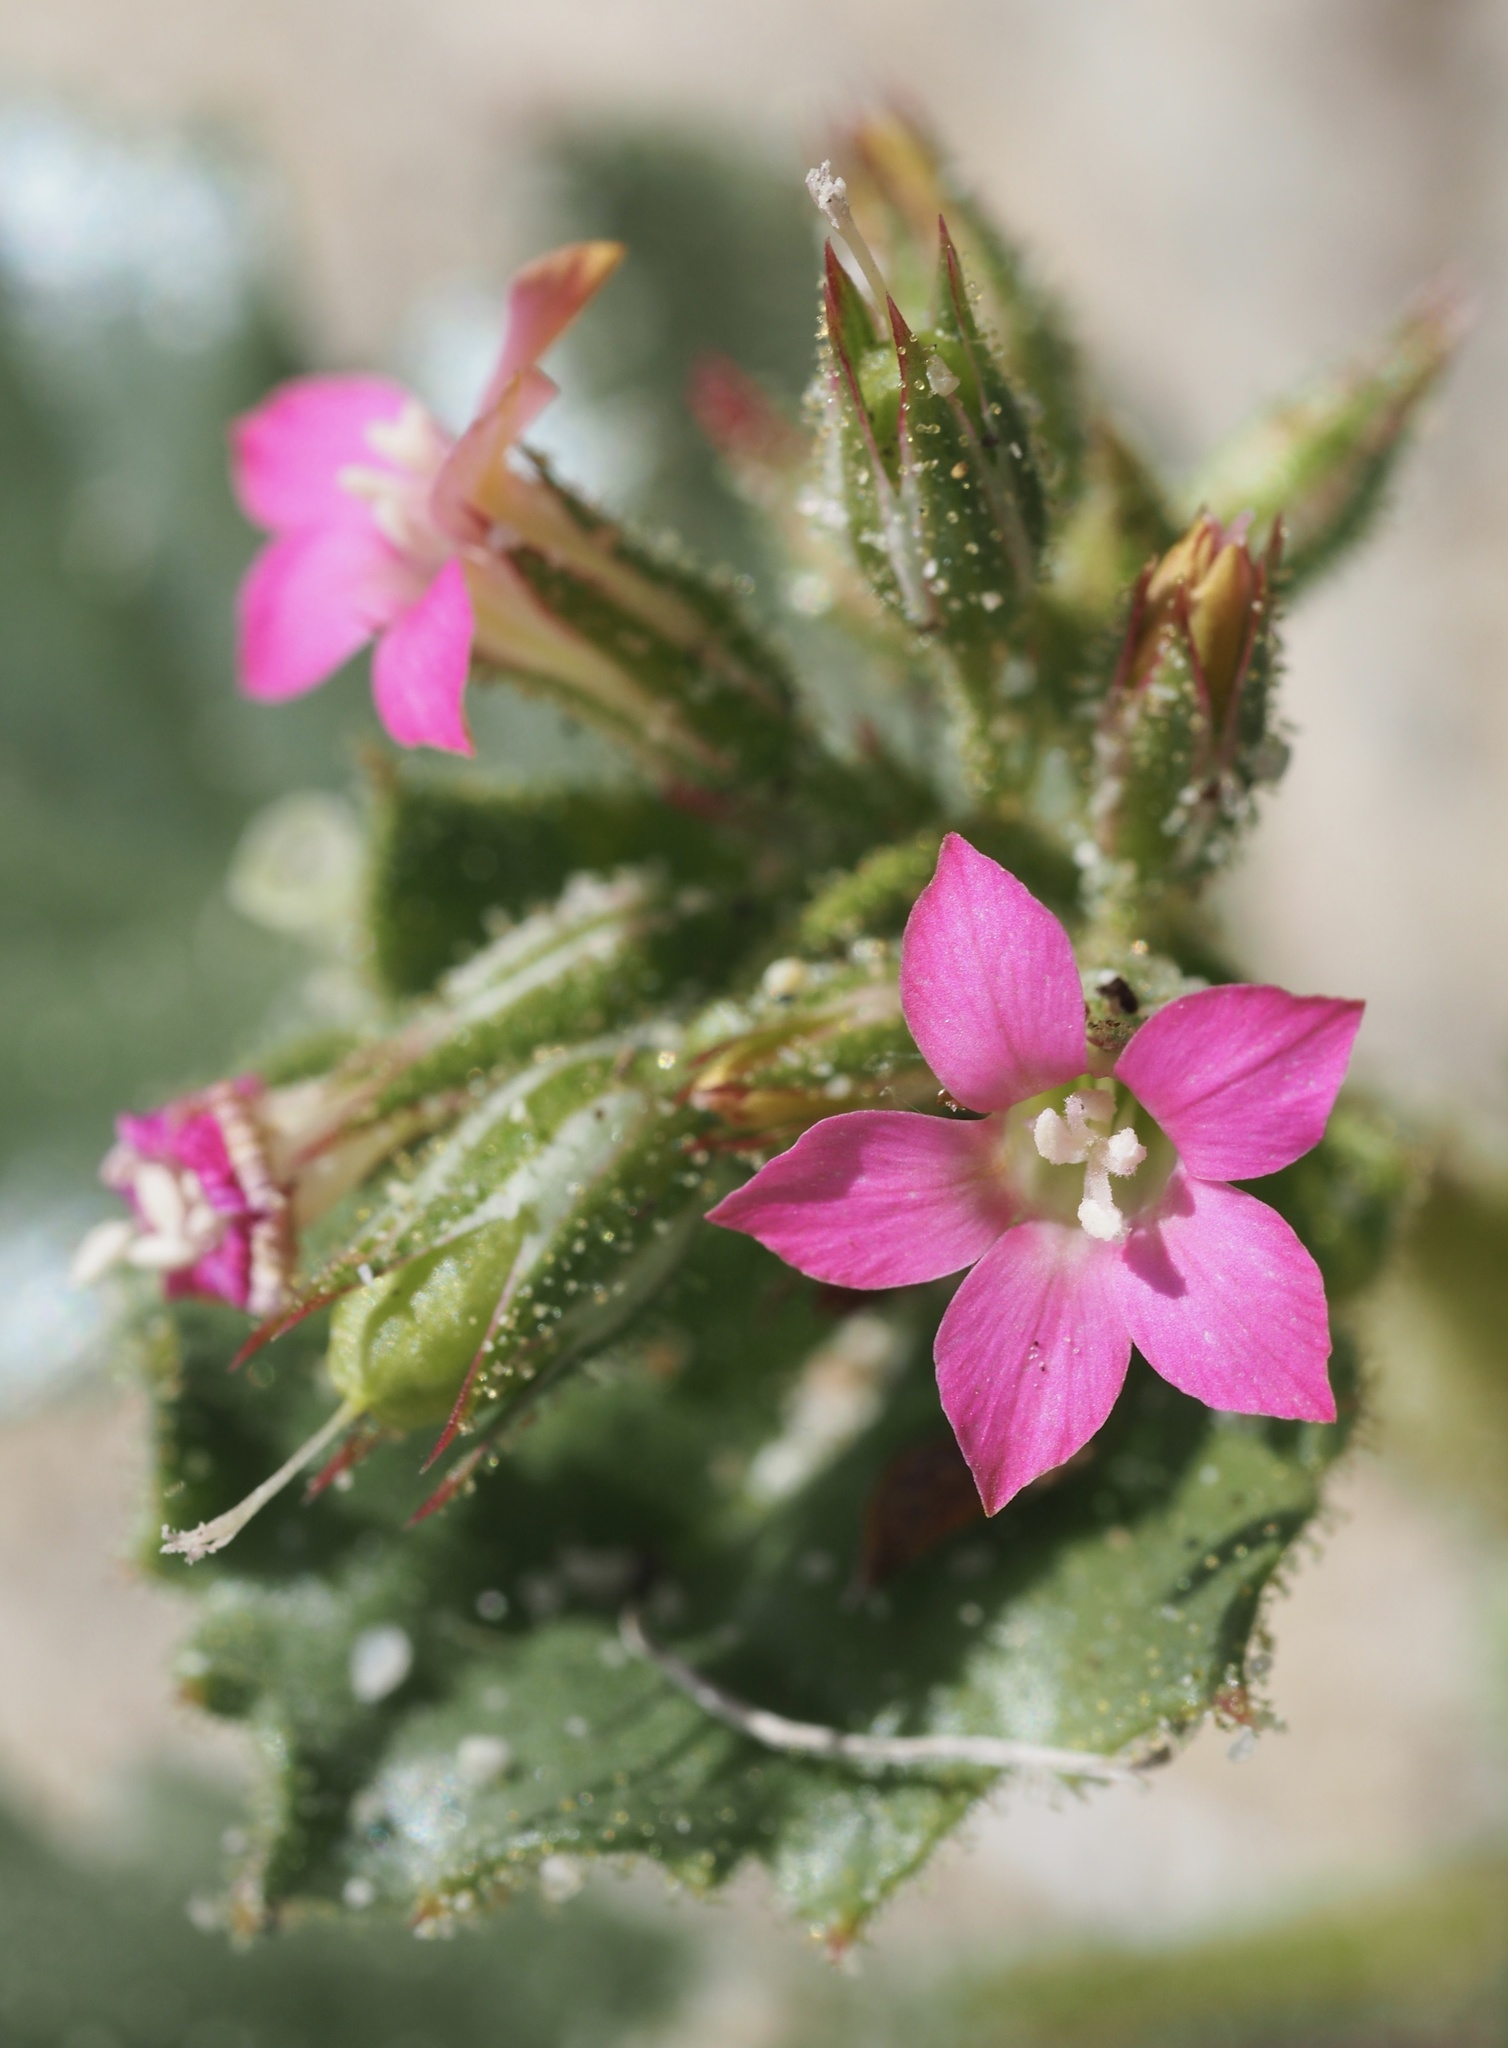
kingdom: Plantae
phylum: Tracheophyta
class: Magnoliopsida
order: Ericales
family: Polemoniaceae
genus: Aliciella
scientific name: Aliciella latifolia
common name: Broad-leaf gilia
